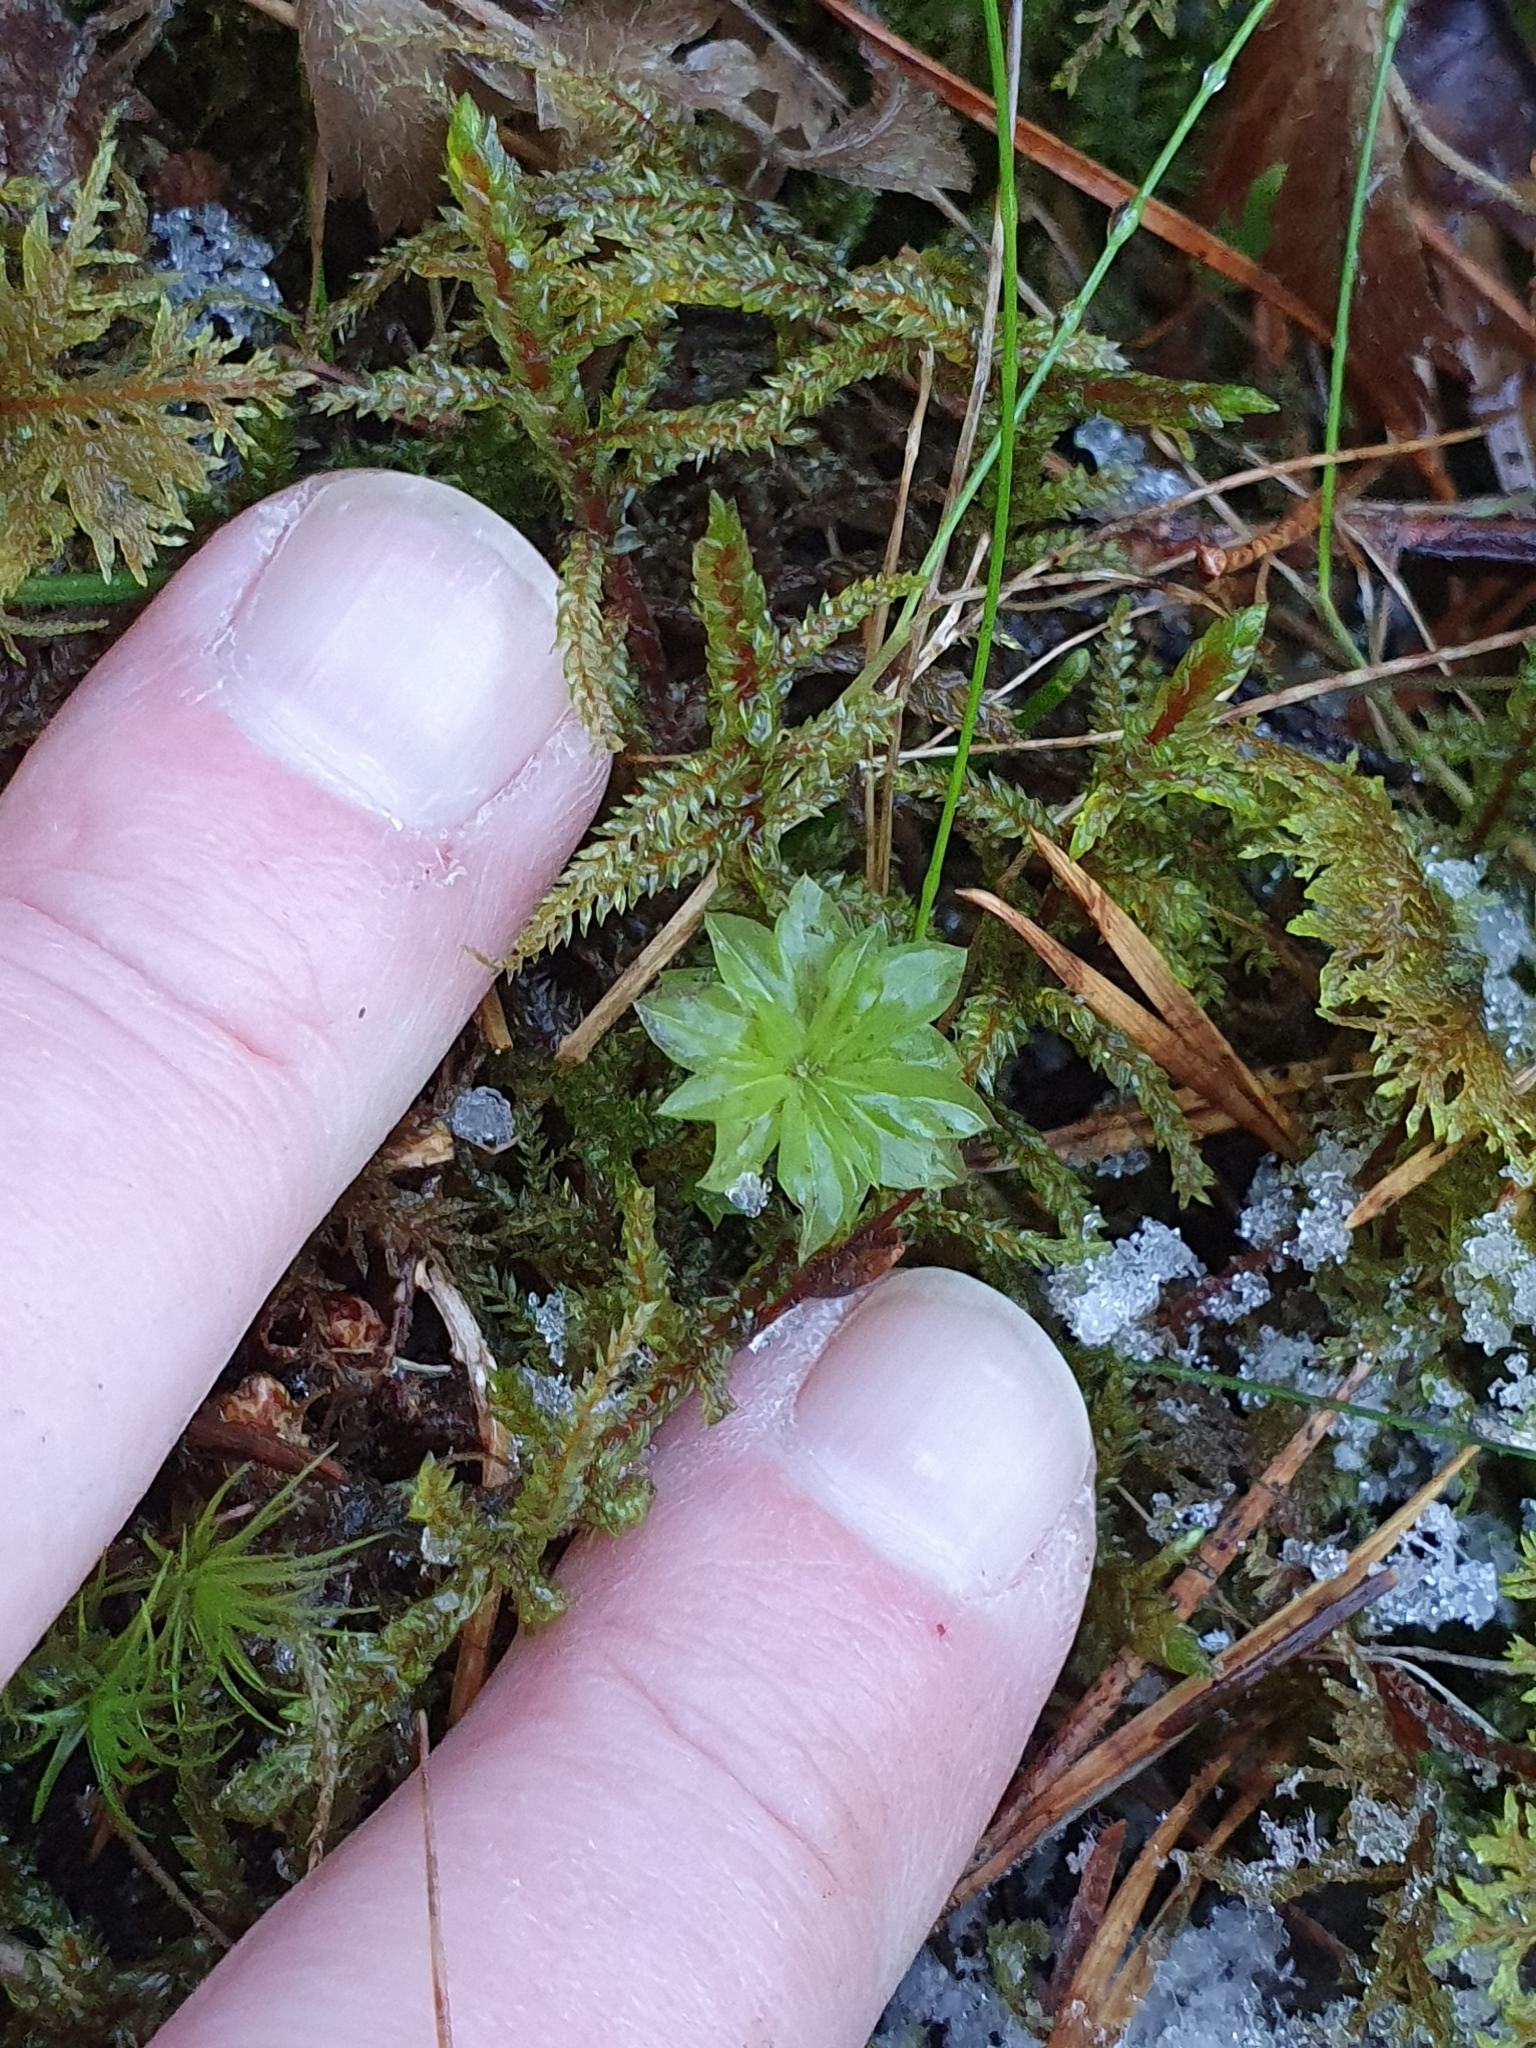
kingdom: Plantae
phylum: Bryophyta
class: Bryopsida
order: Bryales
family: Bryaceae
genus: Rhodobryum
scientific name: Rhodobryum roseum
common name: Rose-moss
